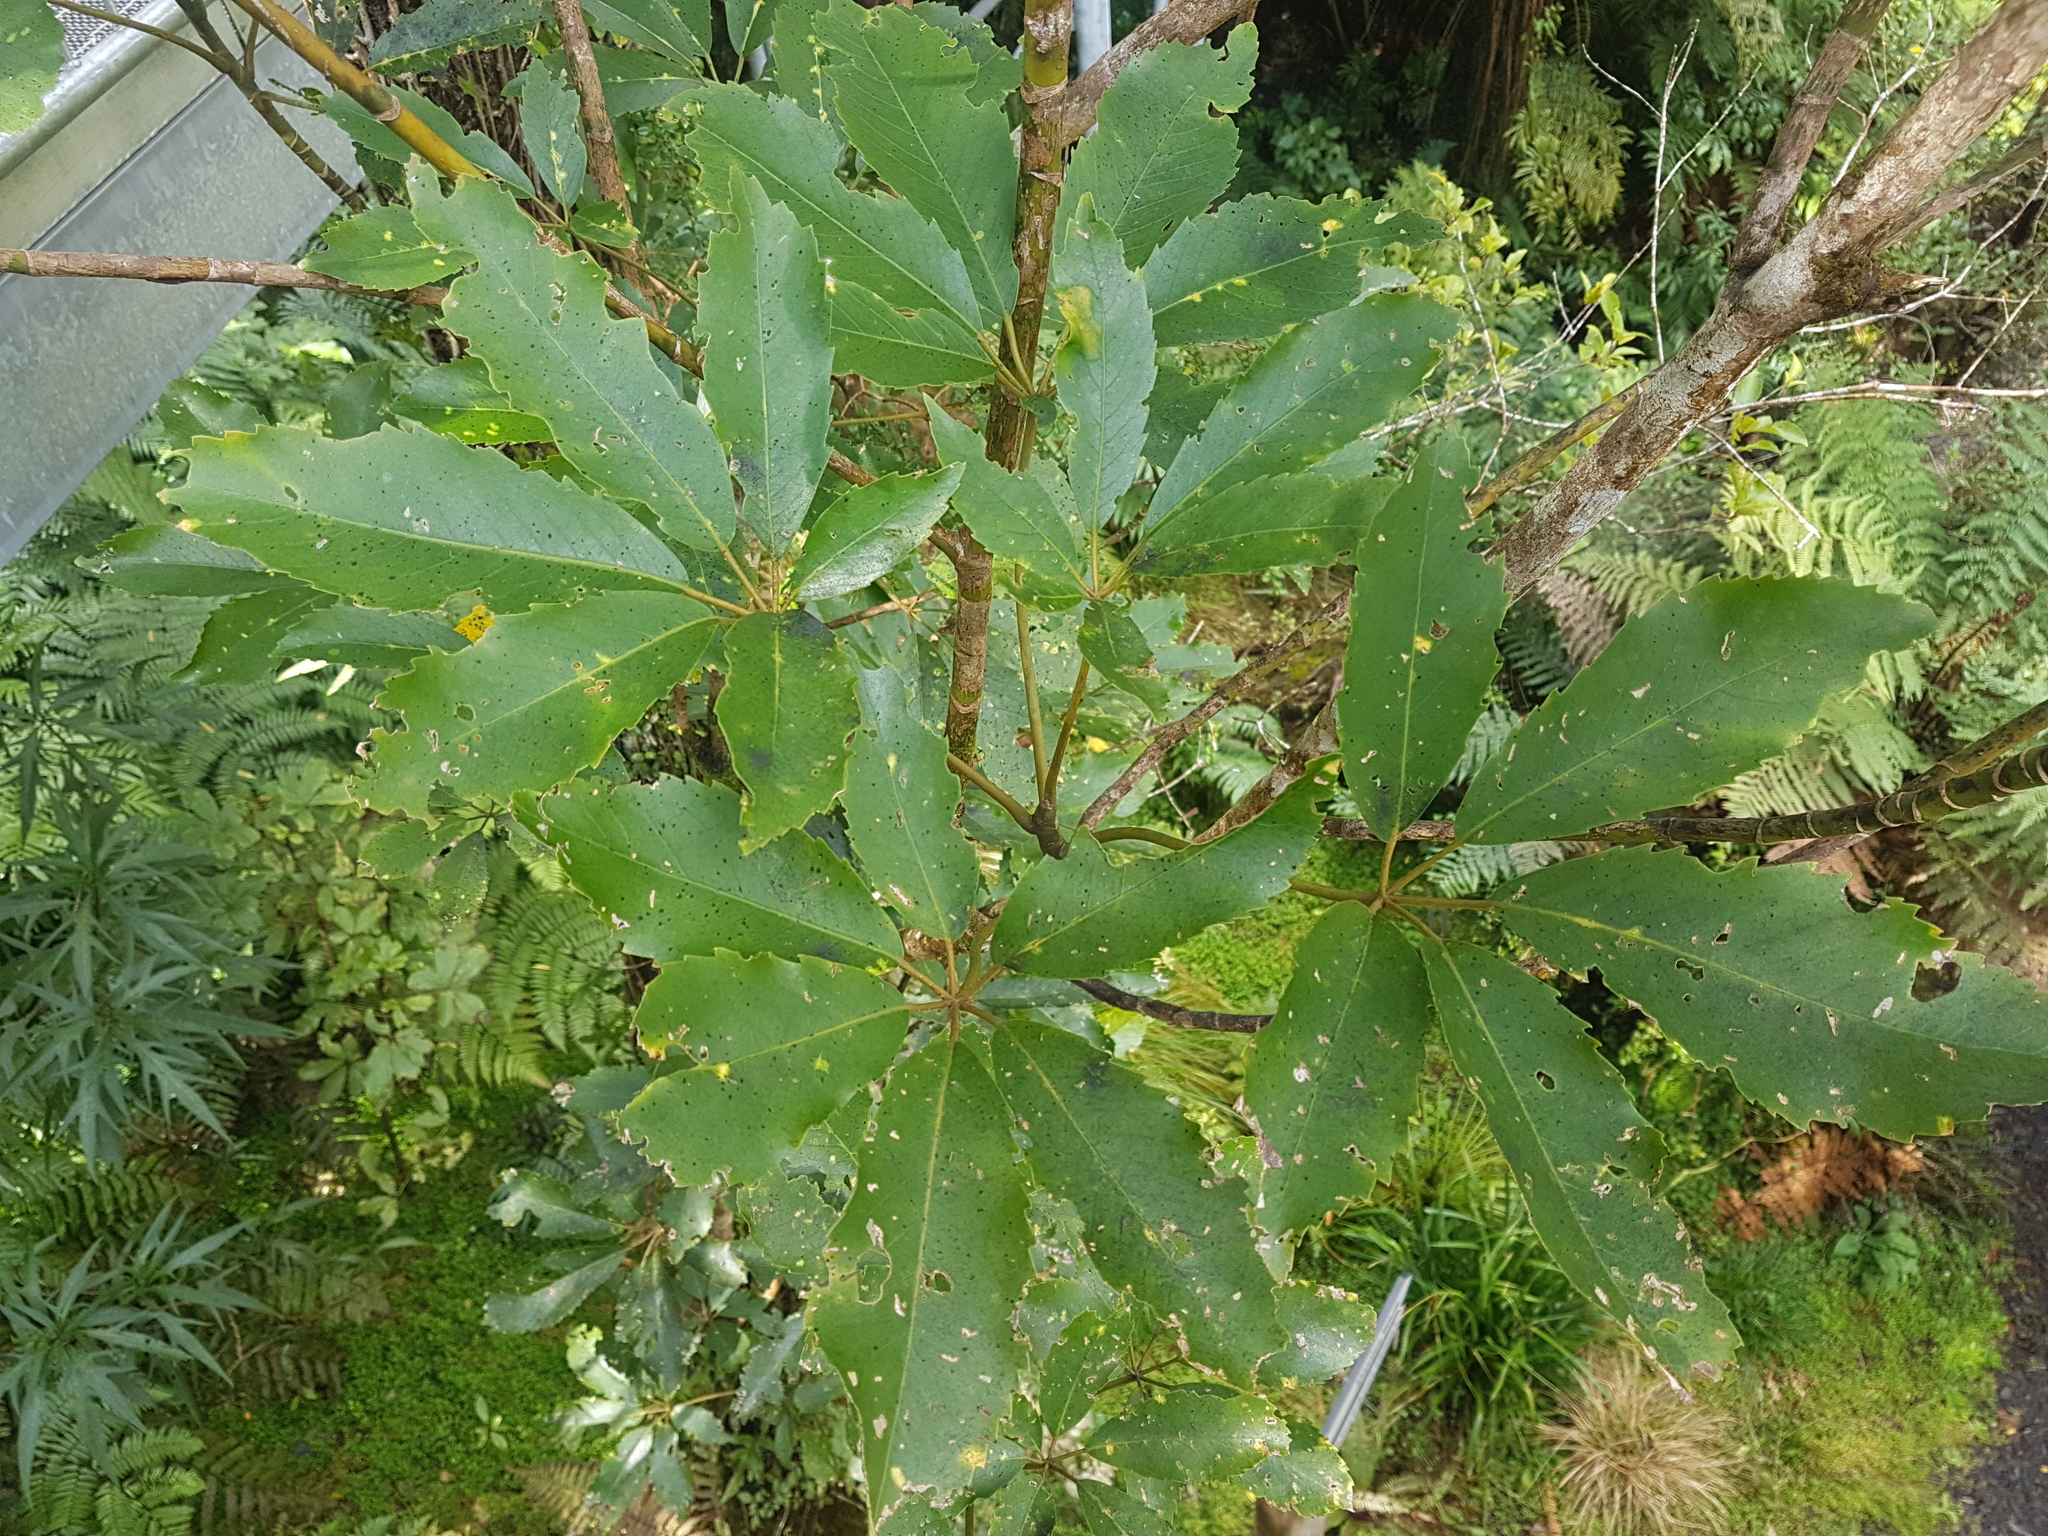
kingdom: Plantae
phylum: Tracheophyta
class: Magnoliopsida
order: Apiales
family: Araliaceae
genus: Neopanax
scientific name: Neopanax arboreus
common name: Five-fingers
